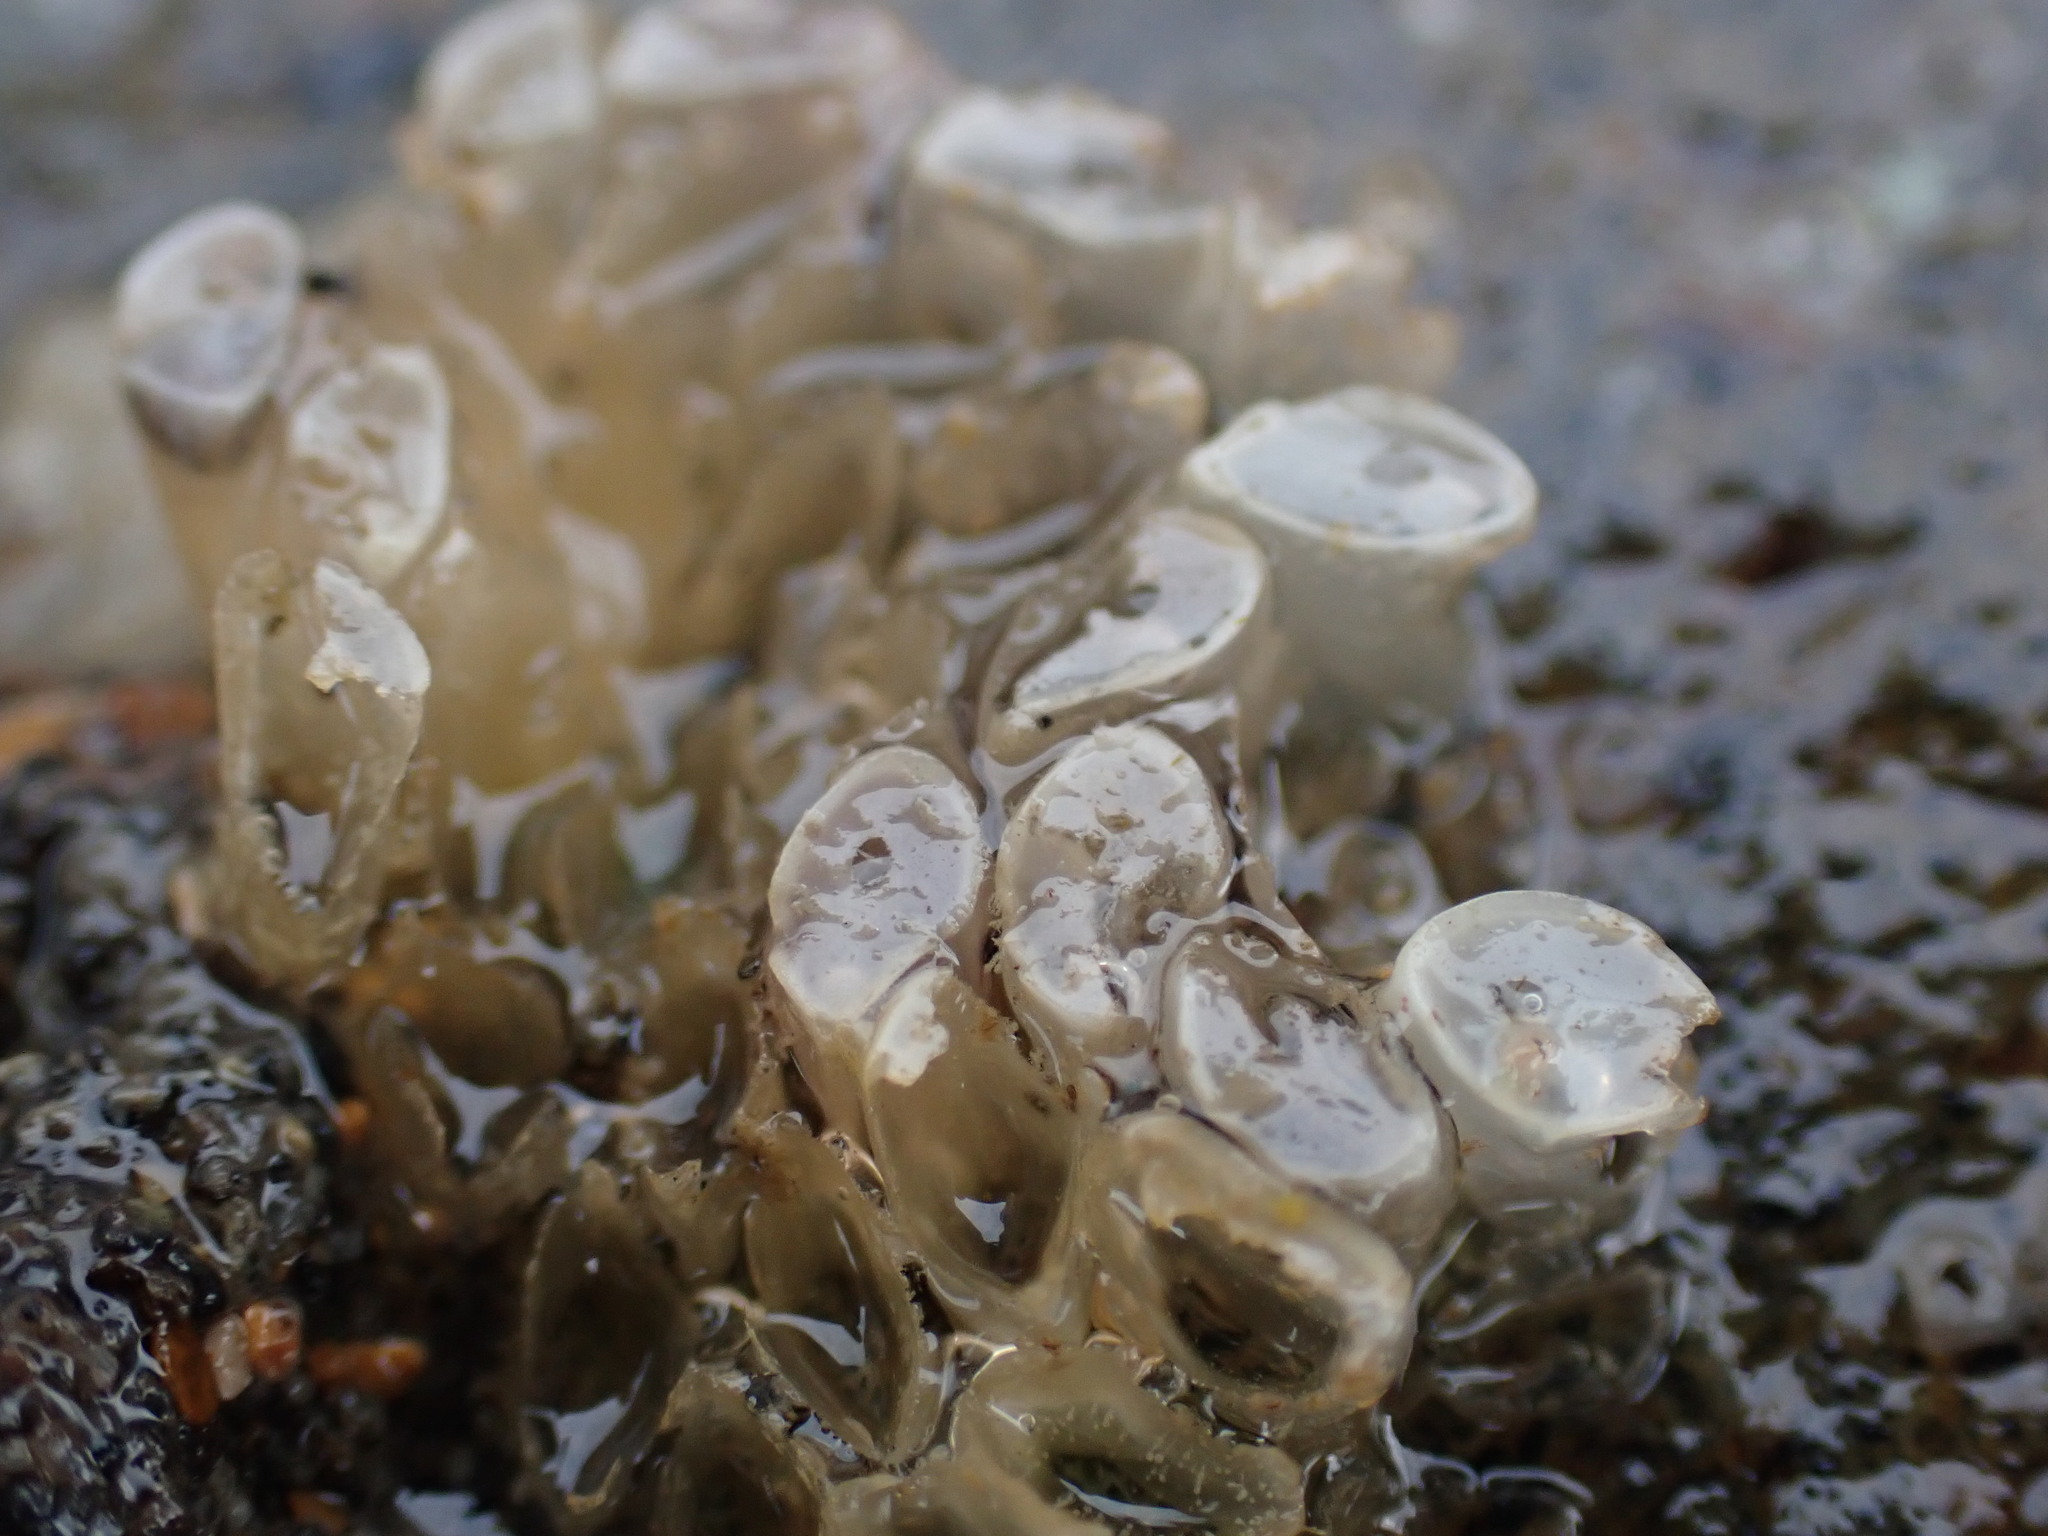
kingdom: Animalia
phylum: Mollusca
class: Gastropoda
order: Neogastropoda
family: Muricidae
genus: Dicathais
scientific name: Dicathais orbita
